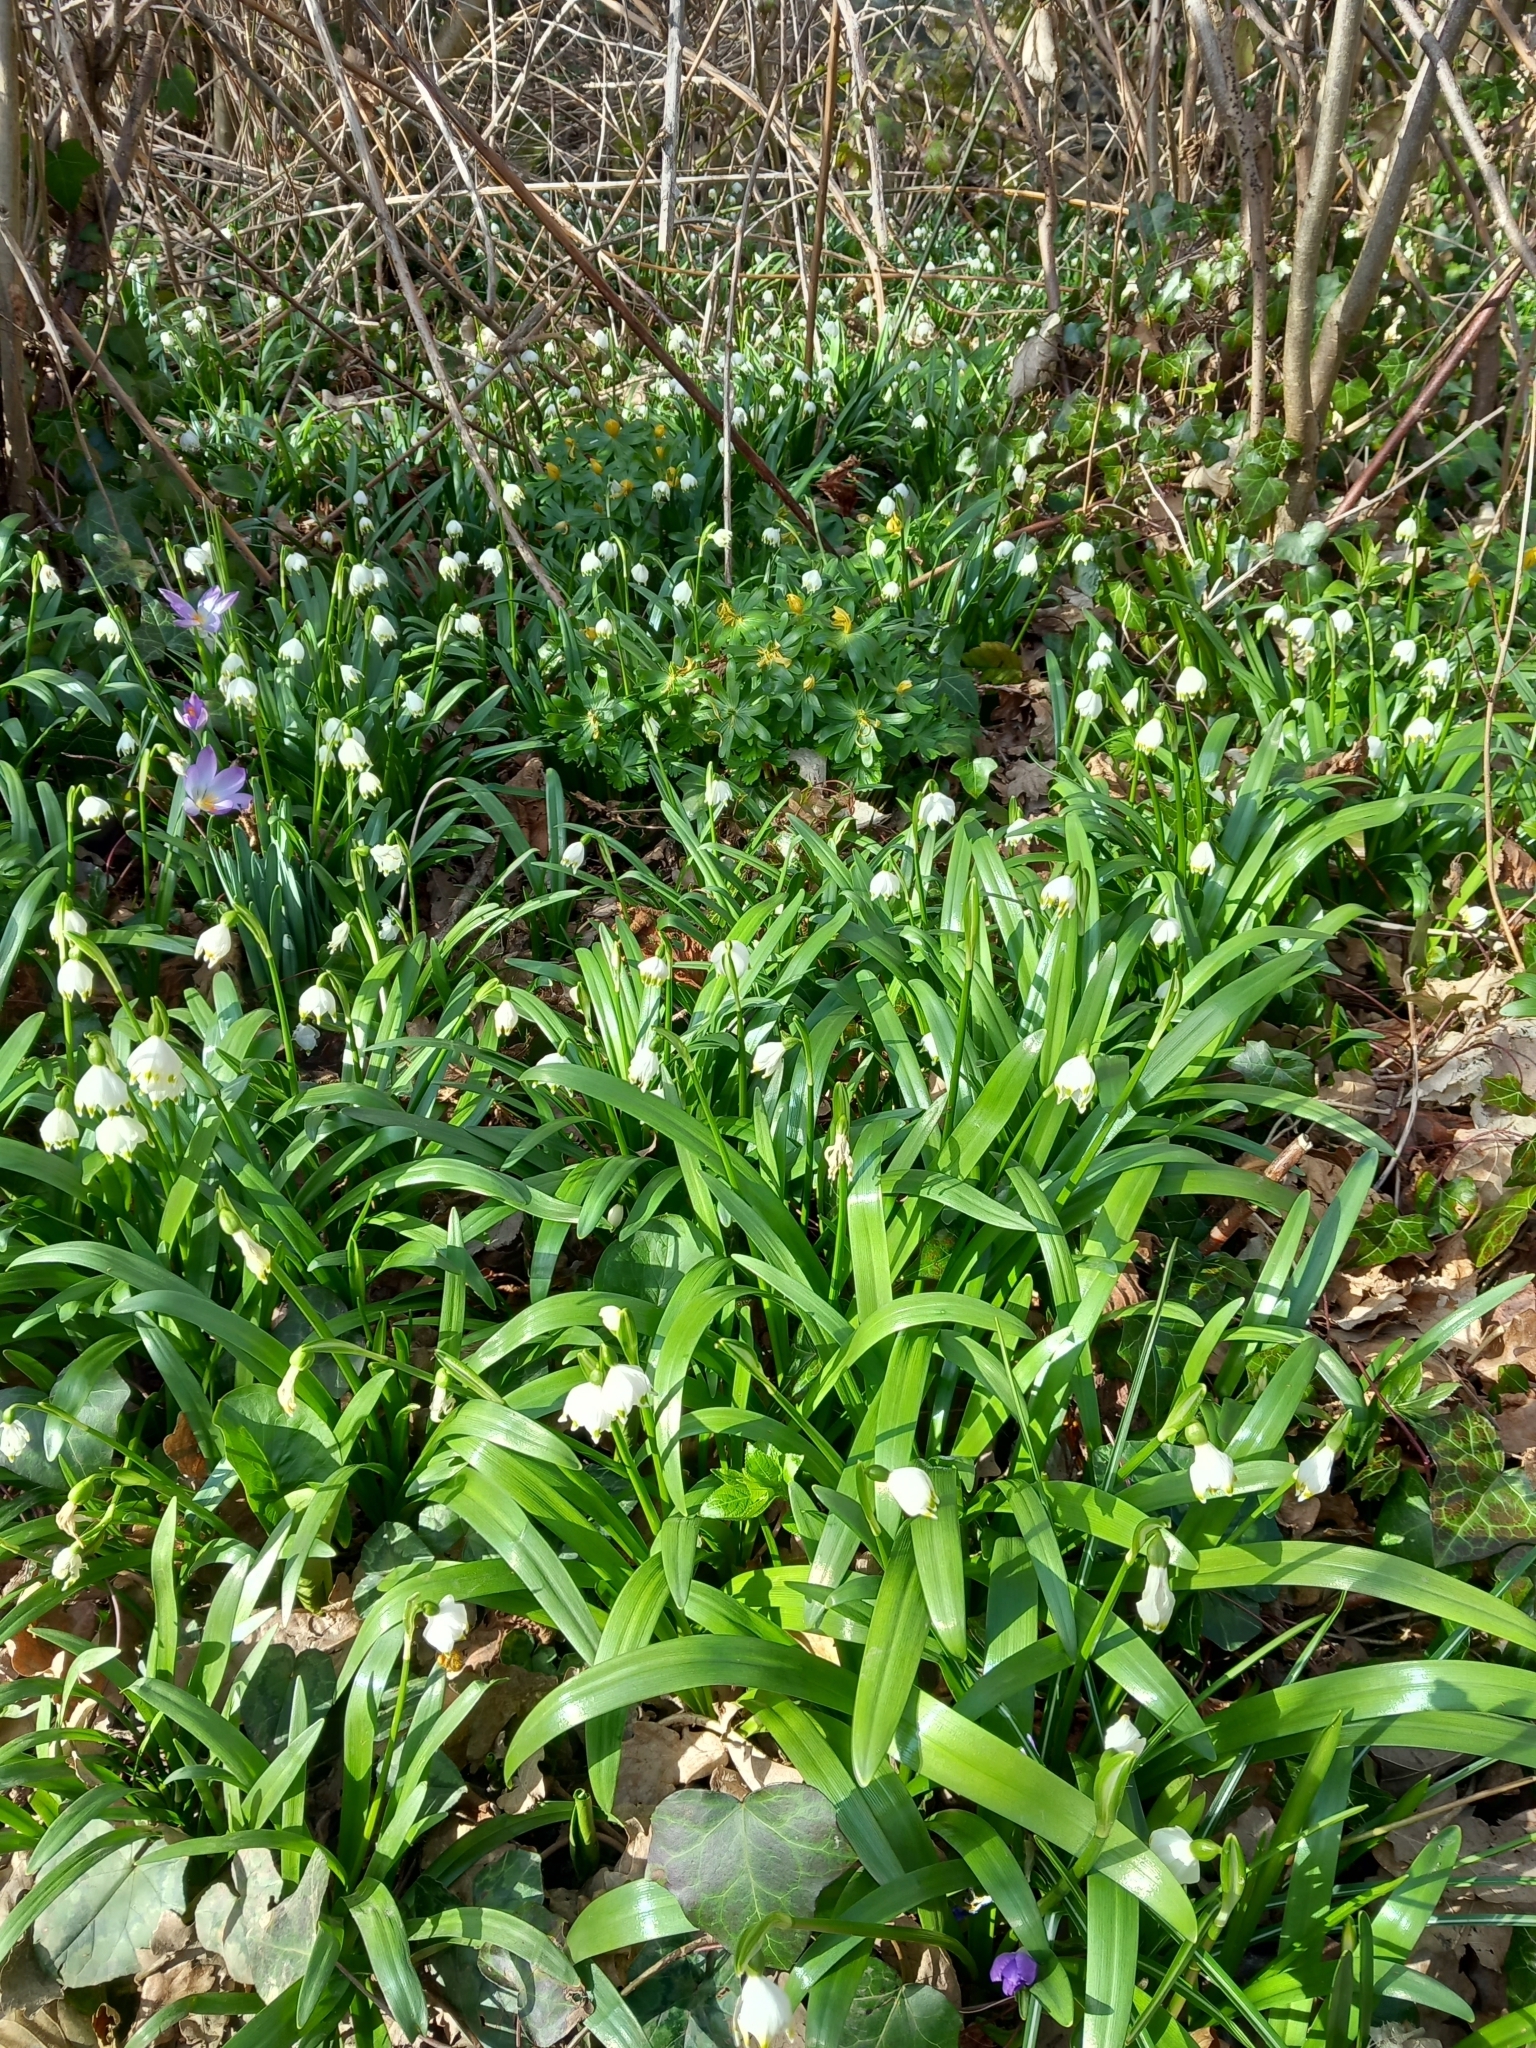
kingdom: Plantae
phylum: Tracheophyta
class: Liliopsida
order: Asparagales
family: Amaryllidaceae
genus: Leucojum
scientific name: Leucojum vernum
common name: Spring snowflake
